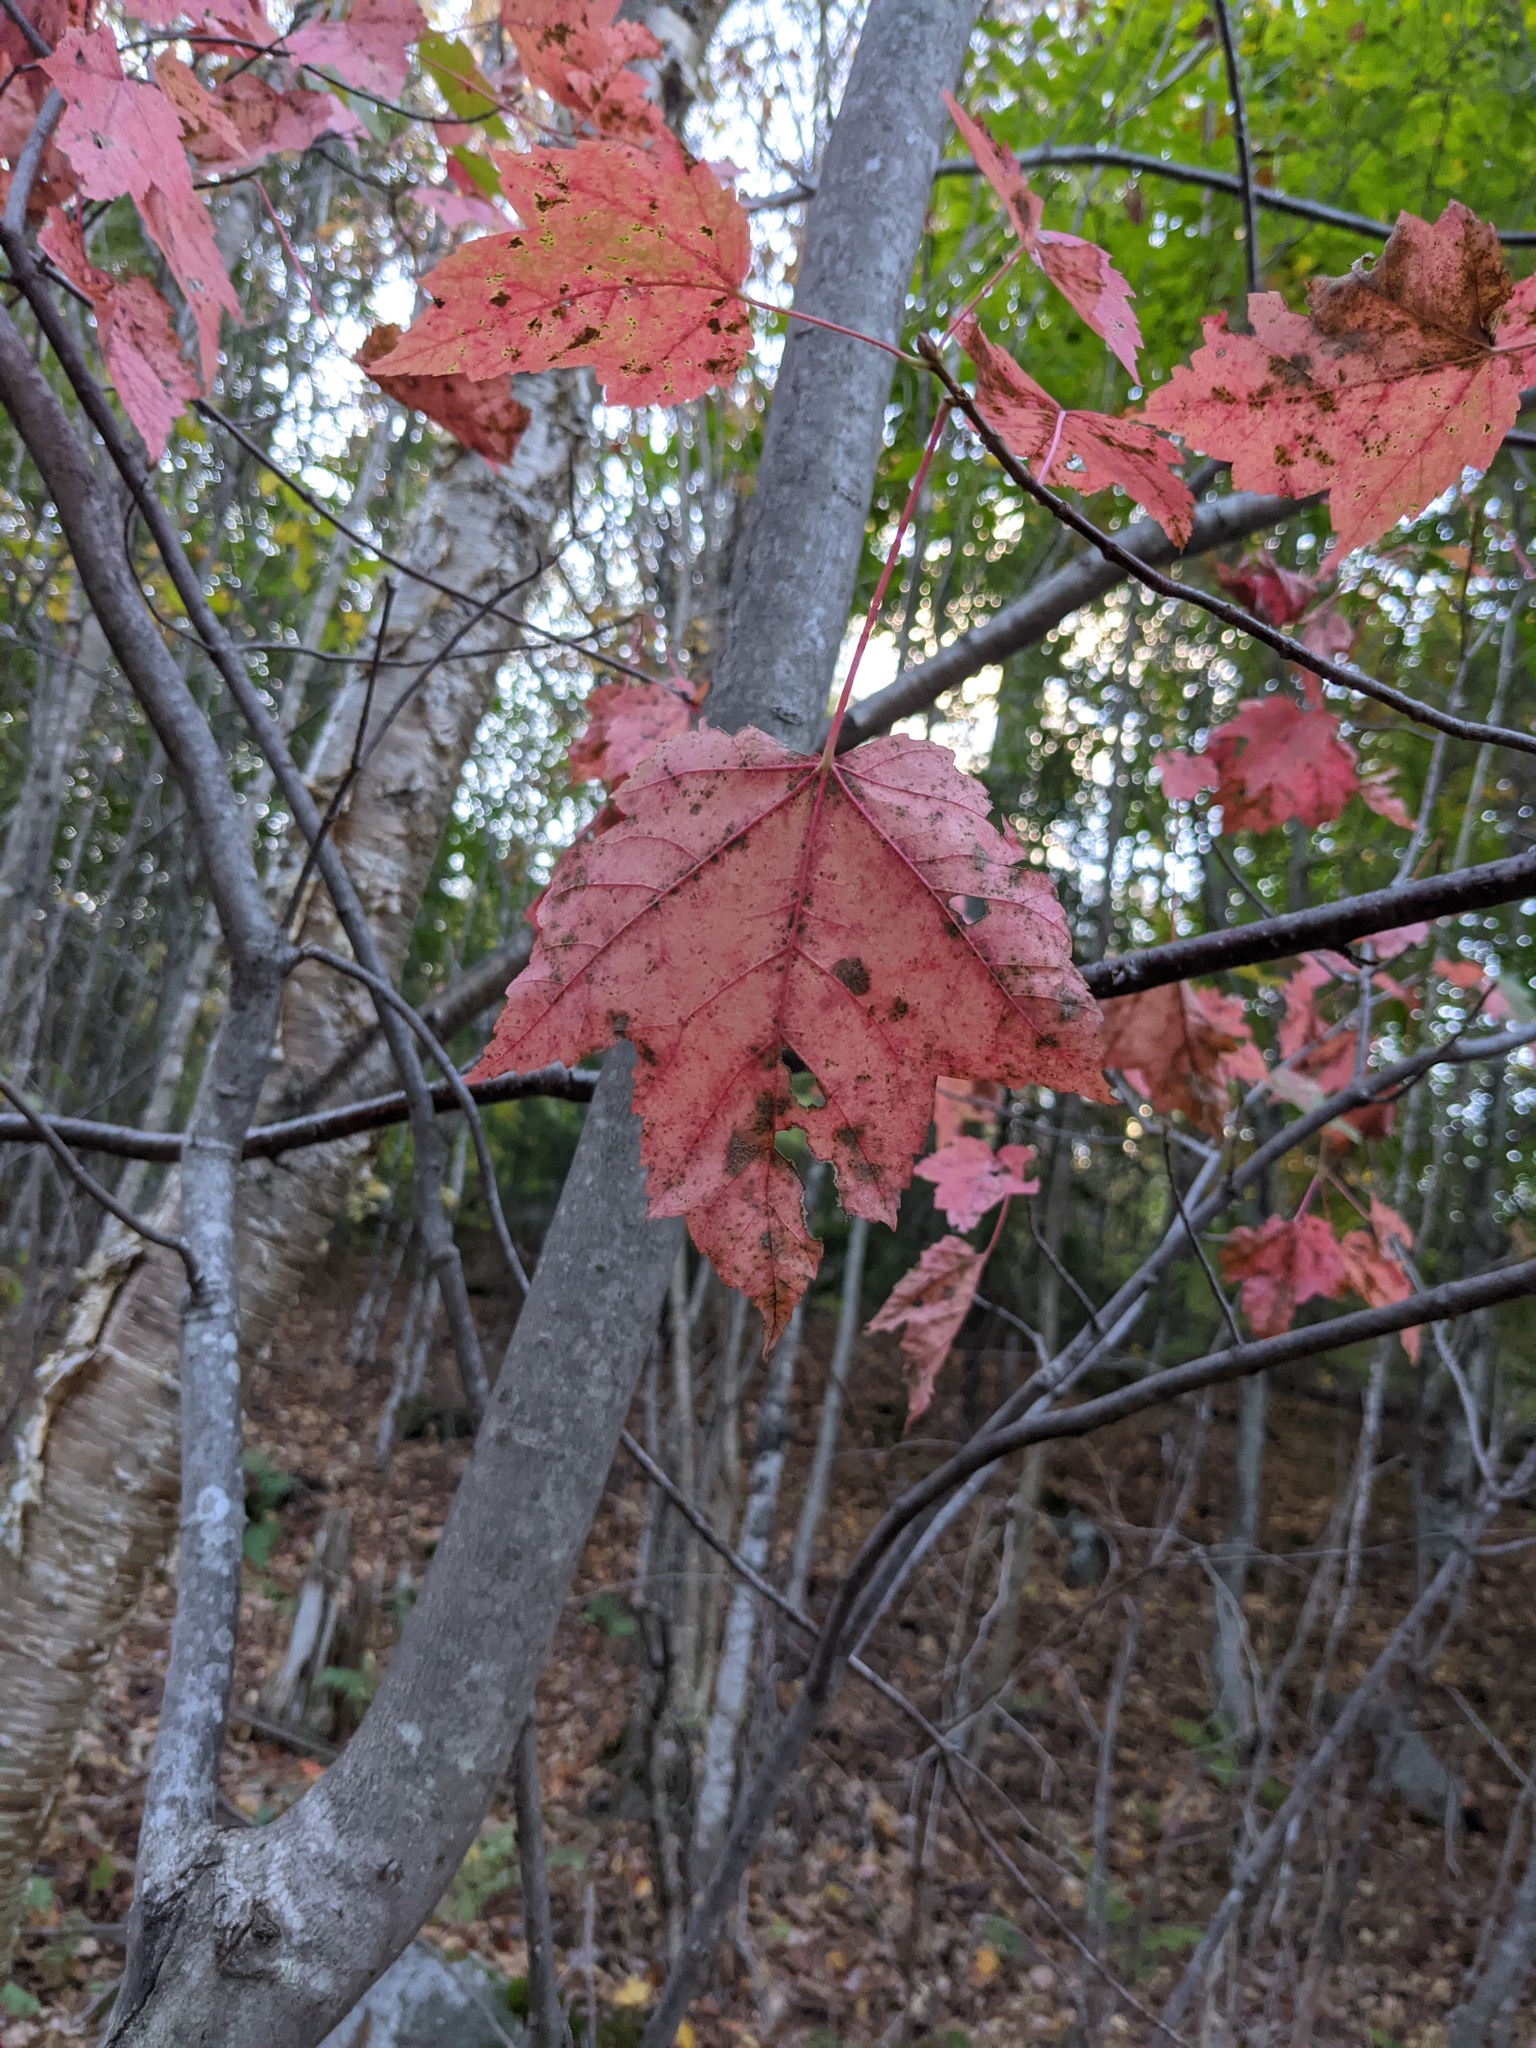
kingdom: Plantae
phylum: Tracheophyta
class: Magnoliopsida
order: Sapindales
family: Sapindaceae
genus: Acer
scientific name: Acer rubrum
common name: Red maple
